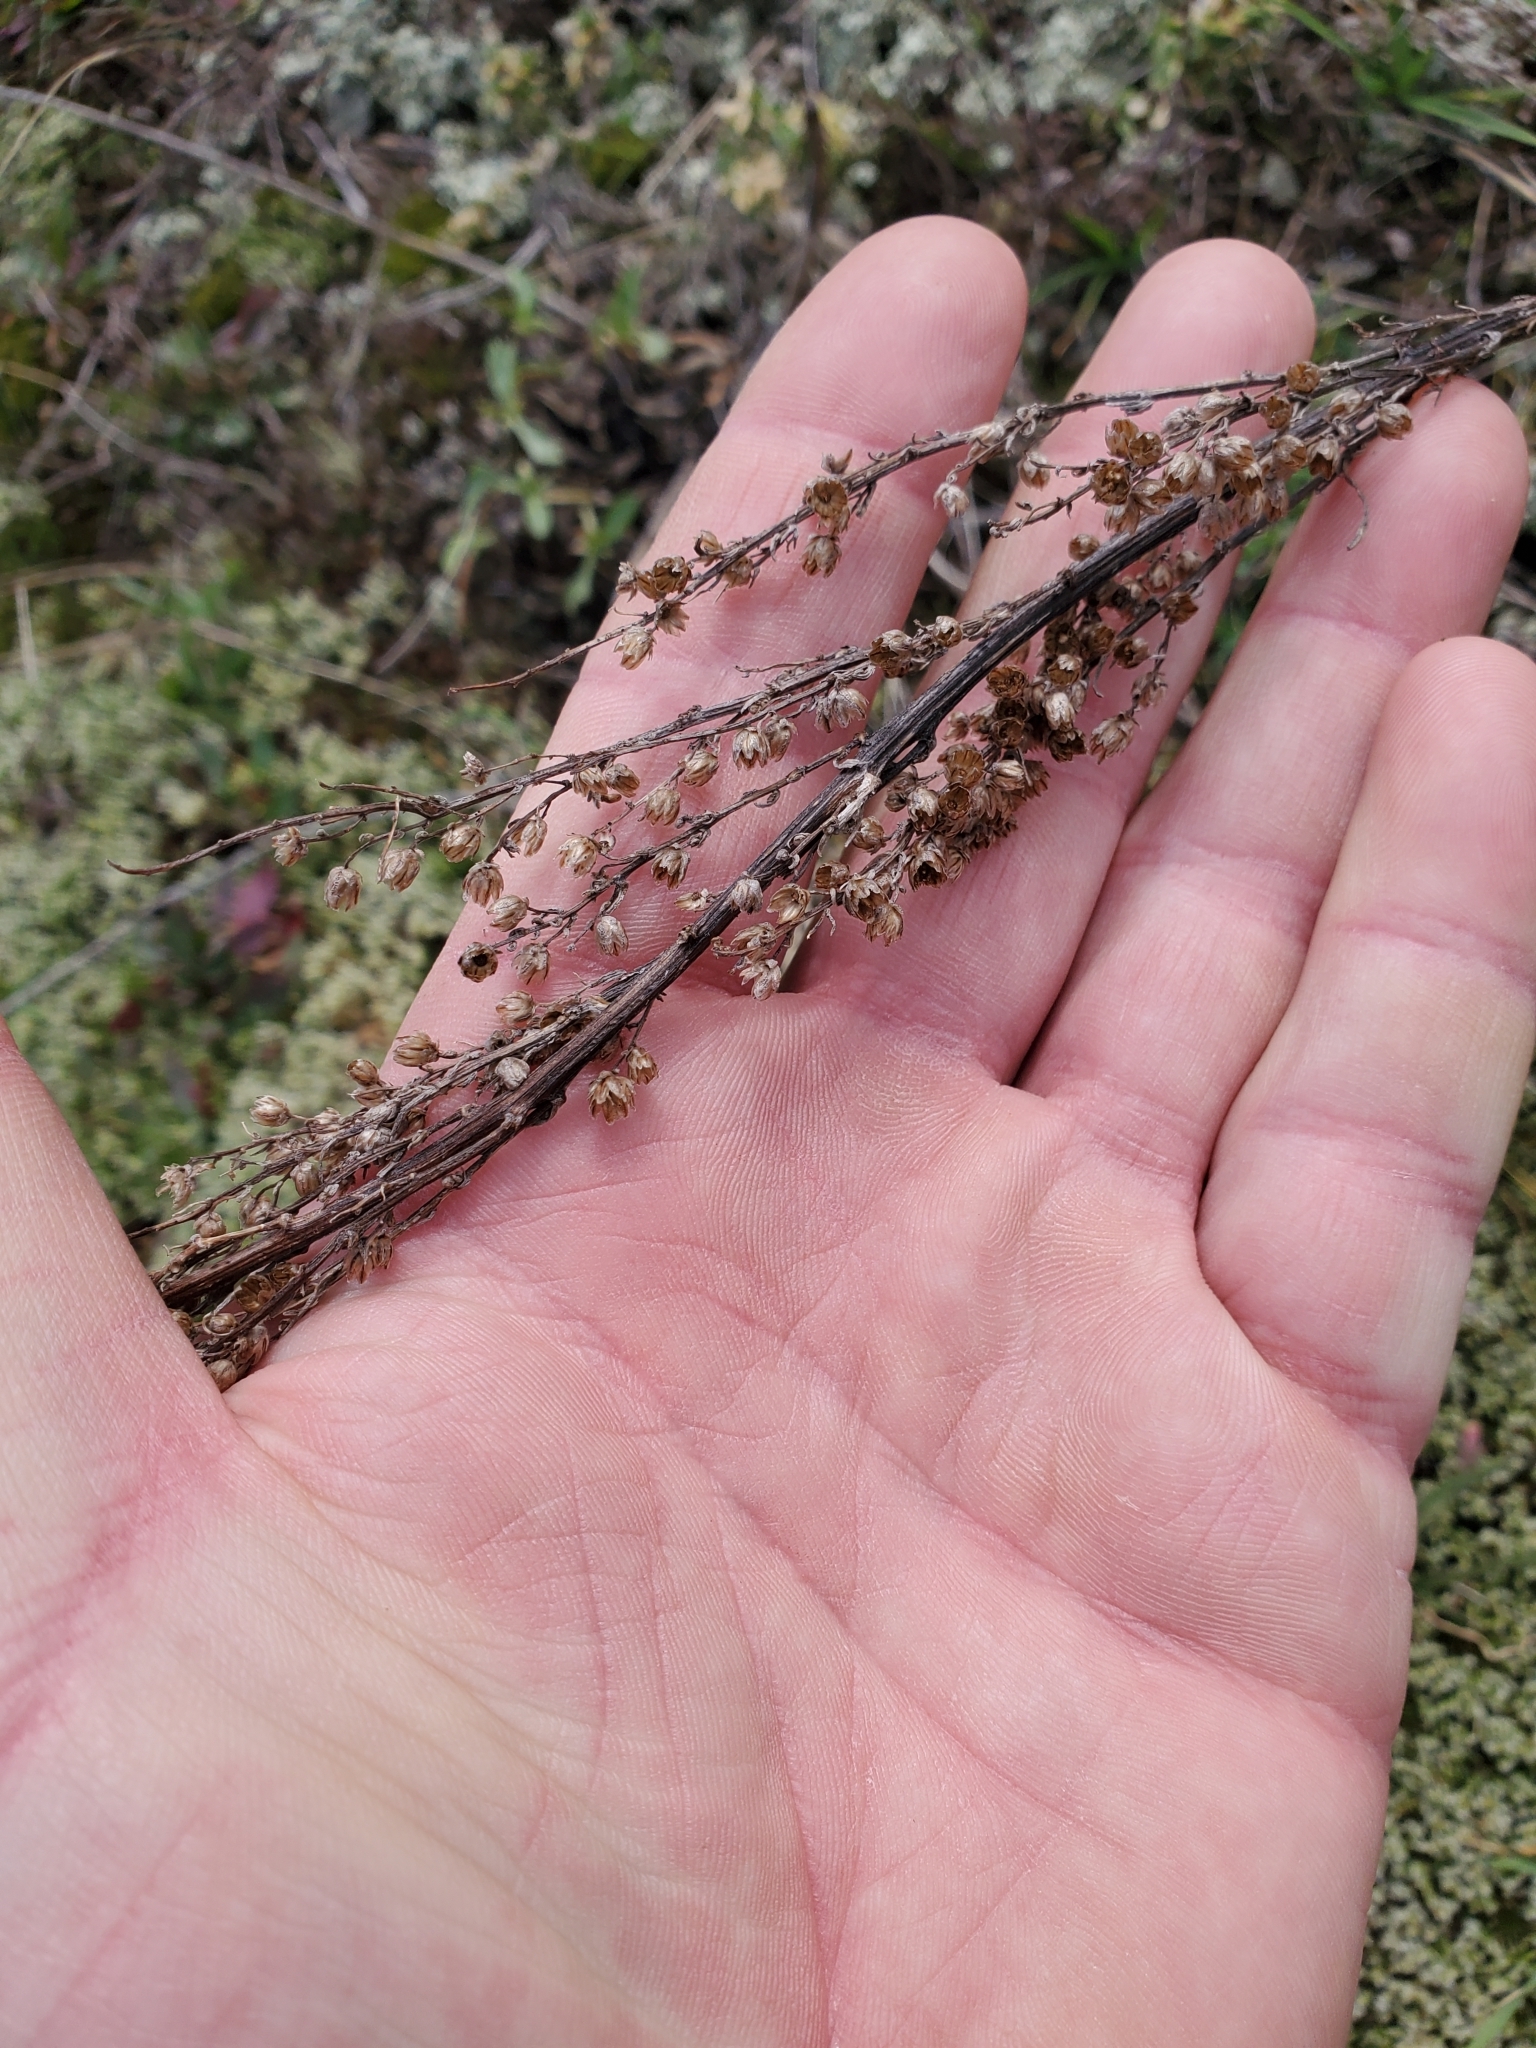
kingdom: Plantae
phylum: Tracheophyta
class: Magnoliopsida
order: Asterales
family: Asteraceae
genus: Artemisia
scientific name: Artemisia campestris
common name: Field wormwood
